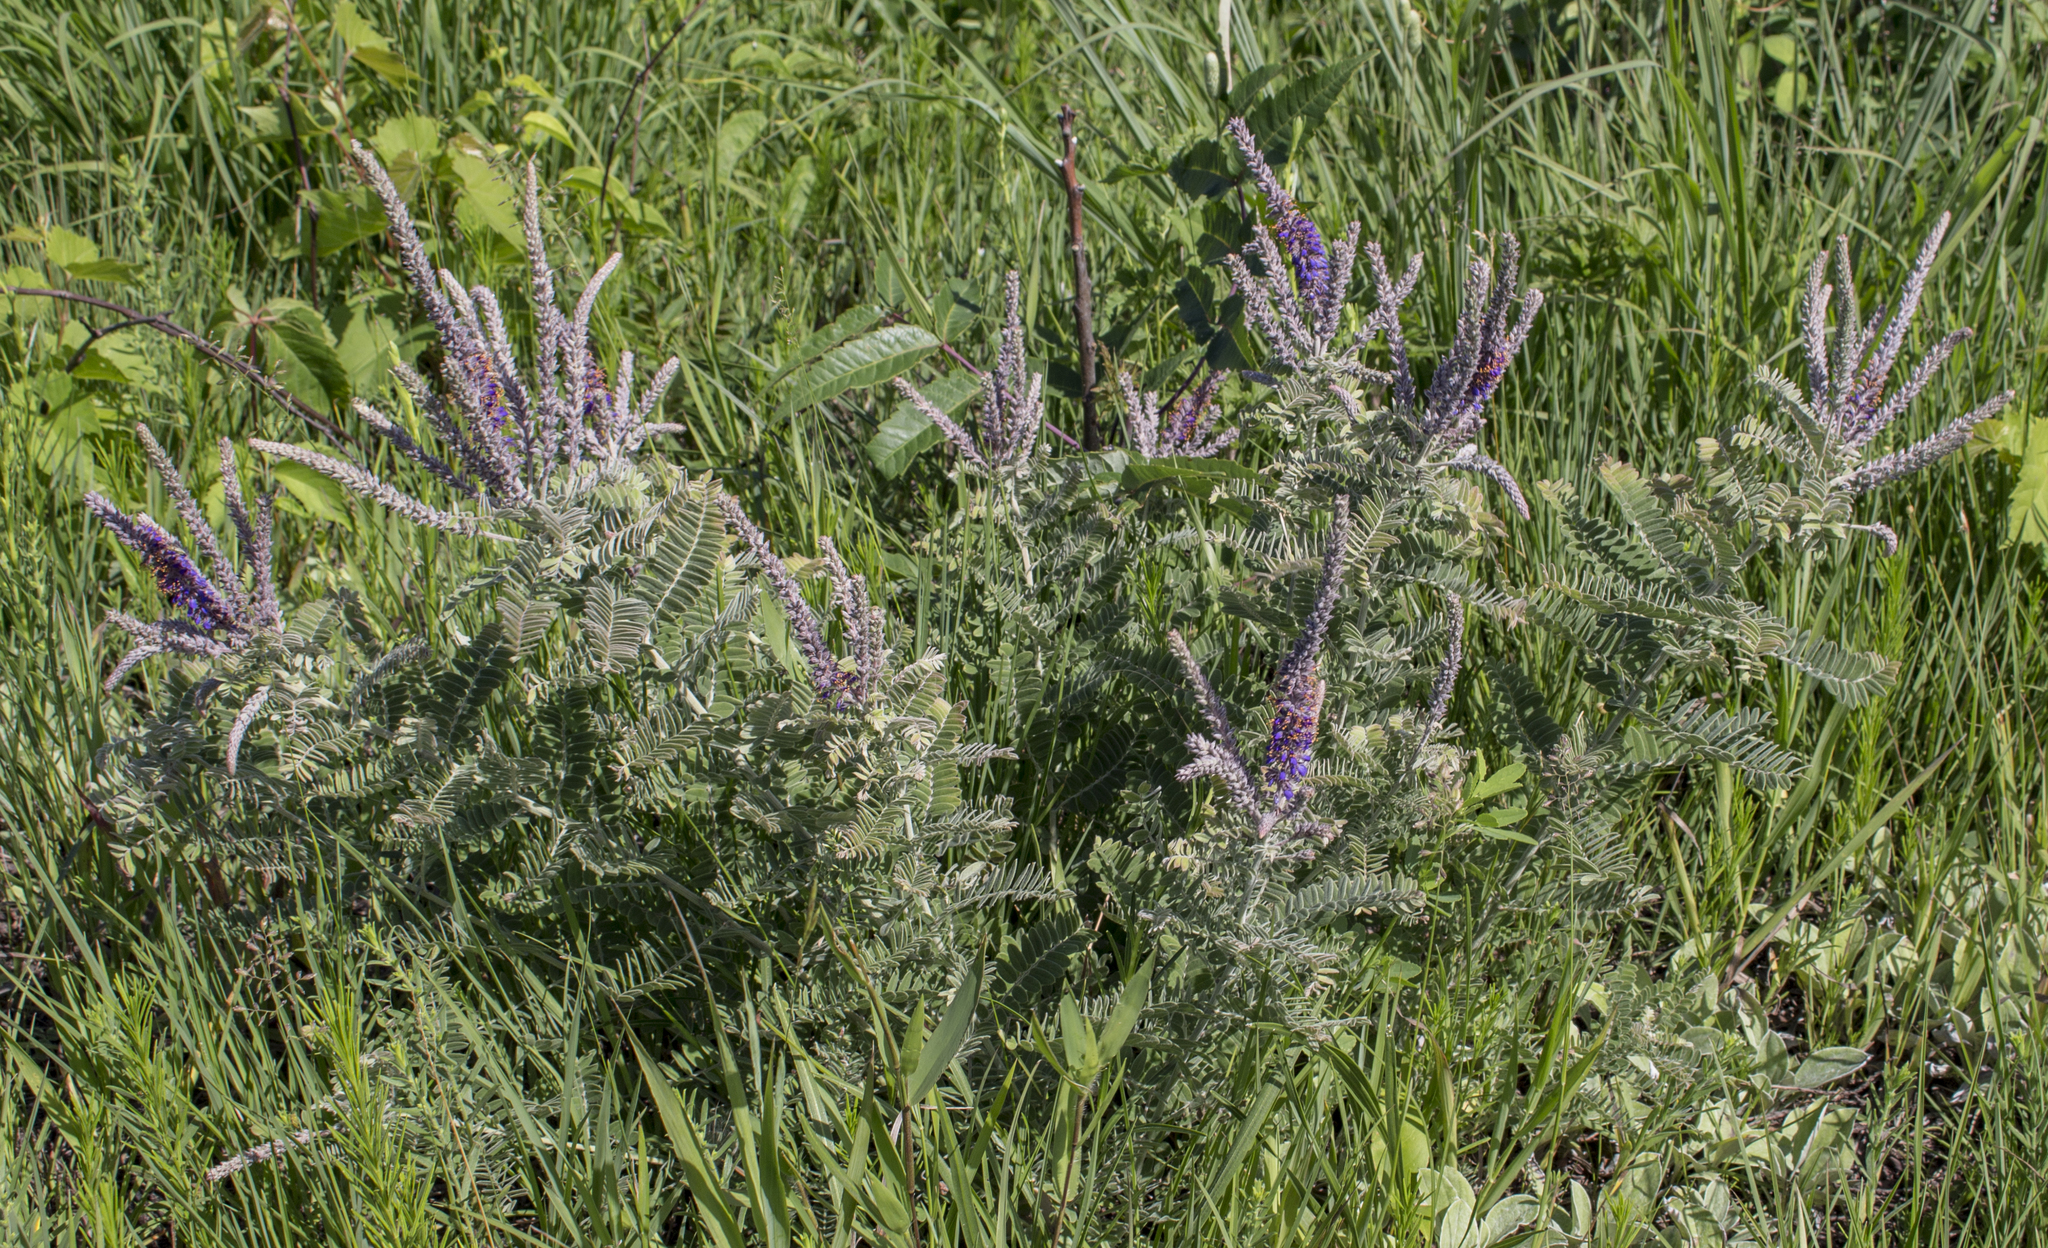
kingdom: Plantae
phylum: Tracheophyta
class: Magnoliopsida
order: Fabales
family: Fabaceae
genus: Amorpha
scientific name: Amorpha canescens
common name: Leadplant
